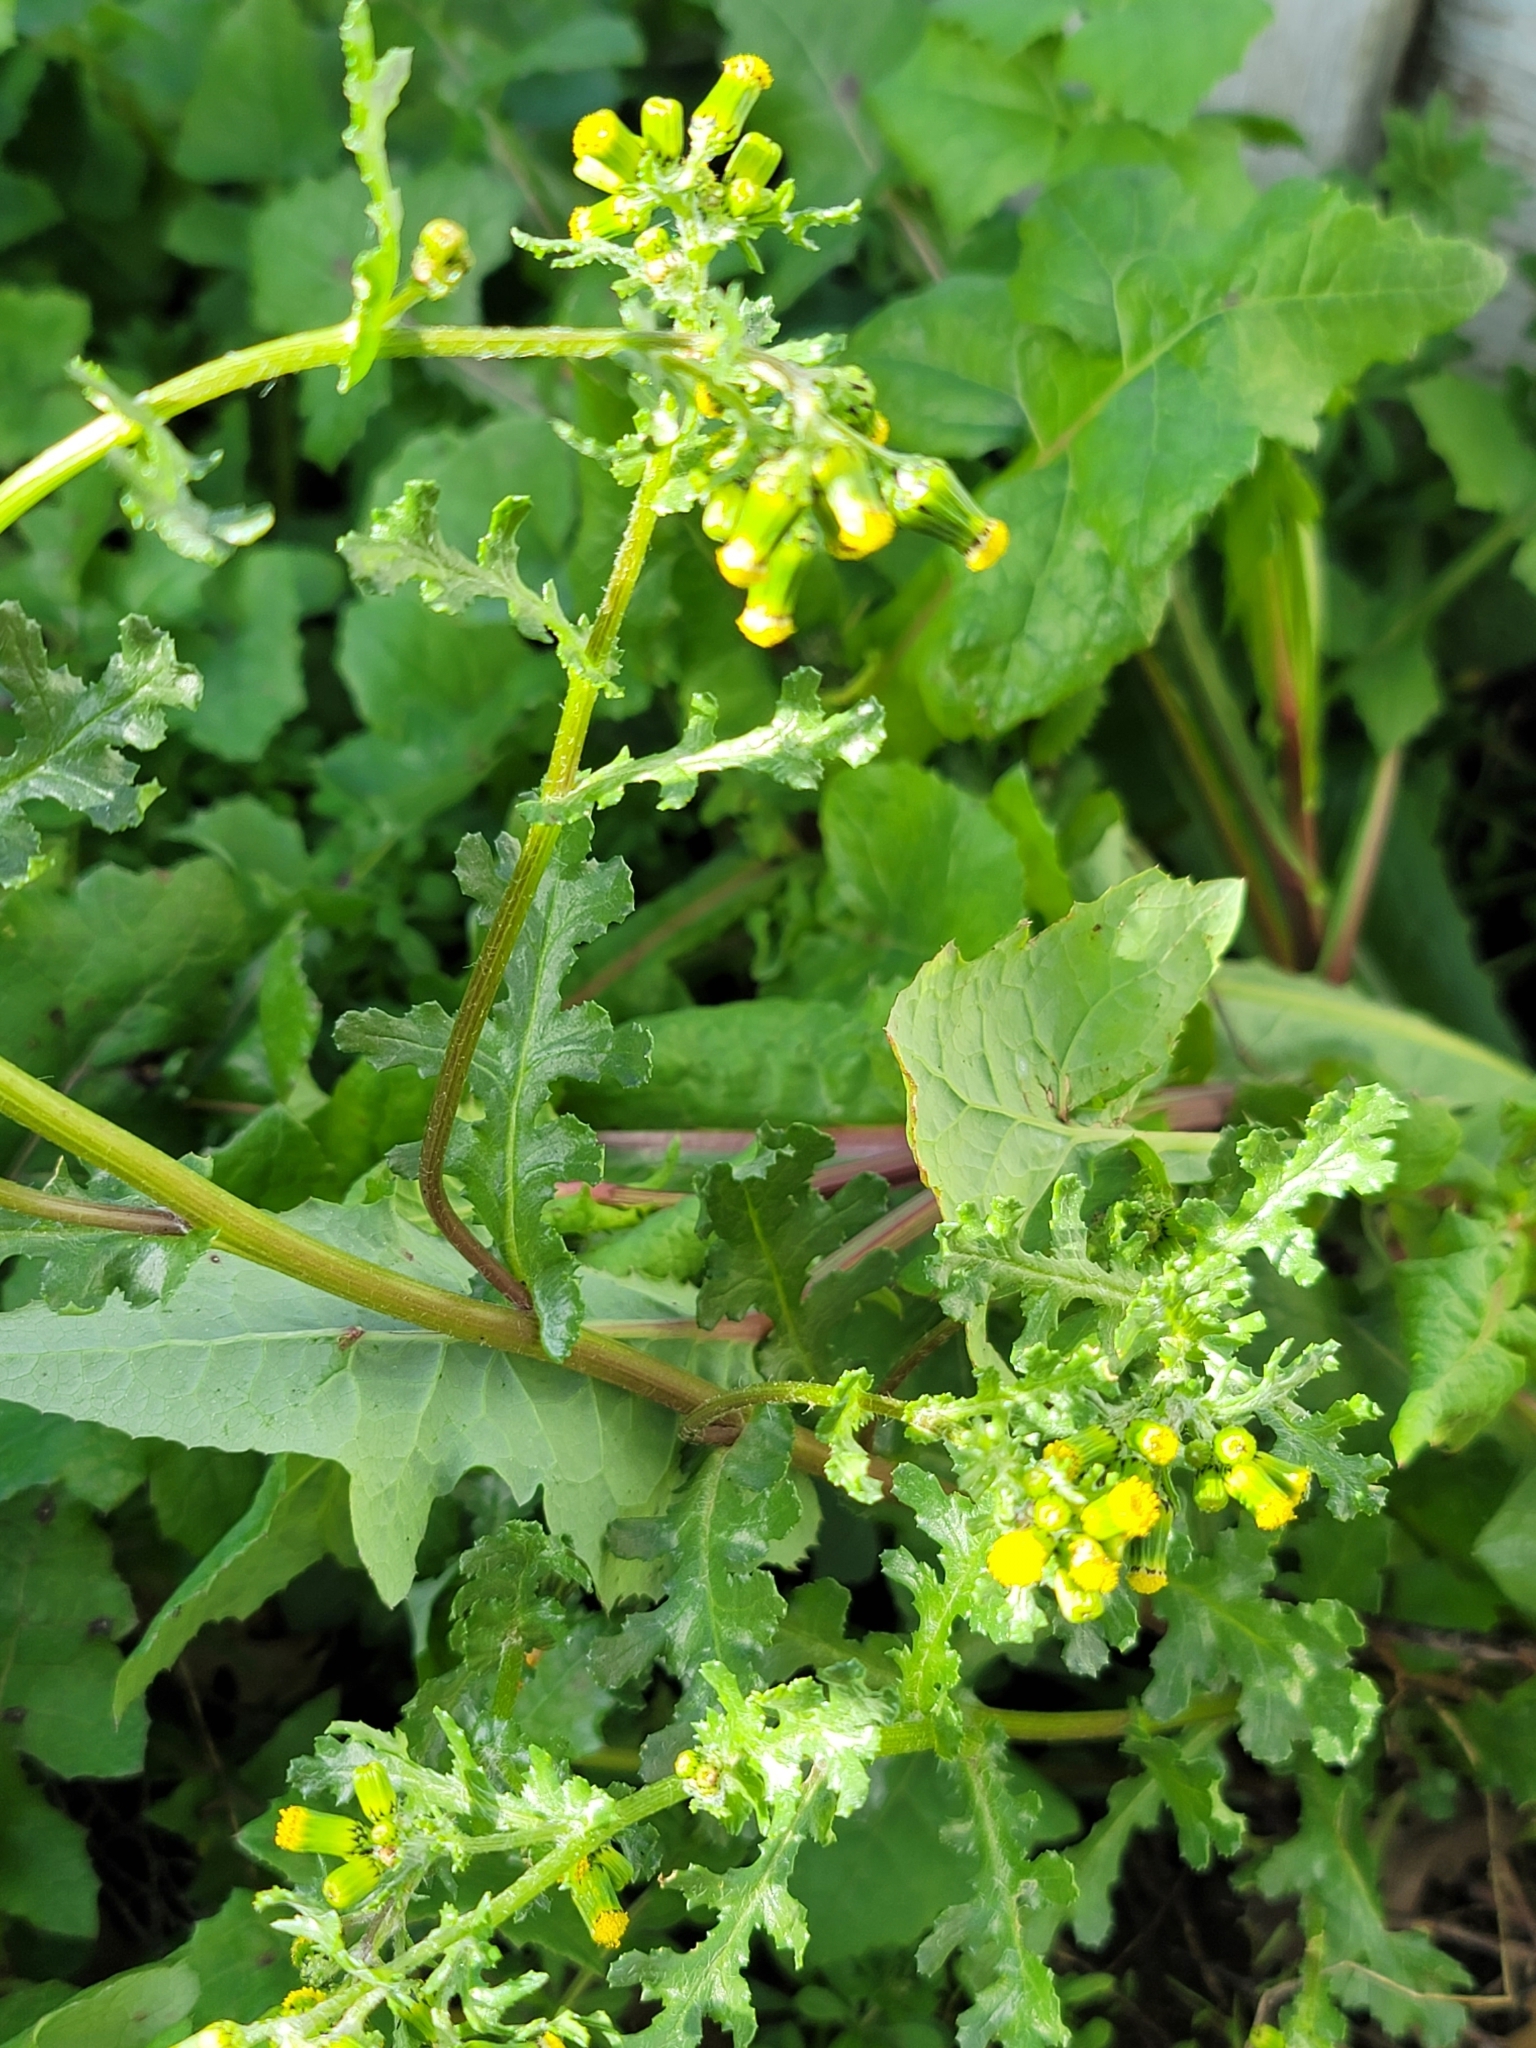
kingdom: Plantae
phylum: Tracheophyta
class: Magnoliopsida
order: Asterales
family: Asteraceae
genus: Senecio
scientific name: Senecio vulgaris
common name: Old-man-in-the-spring
